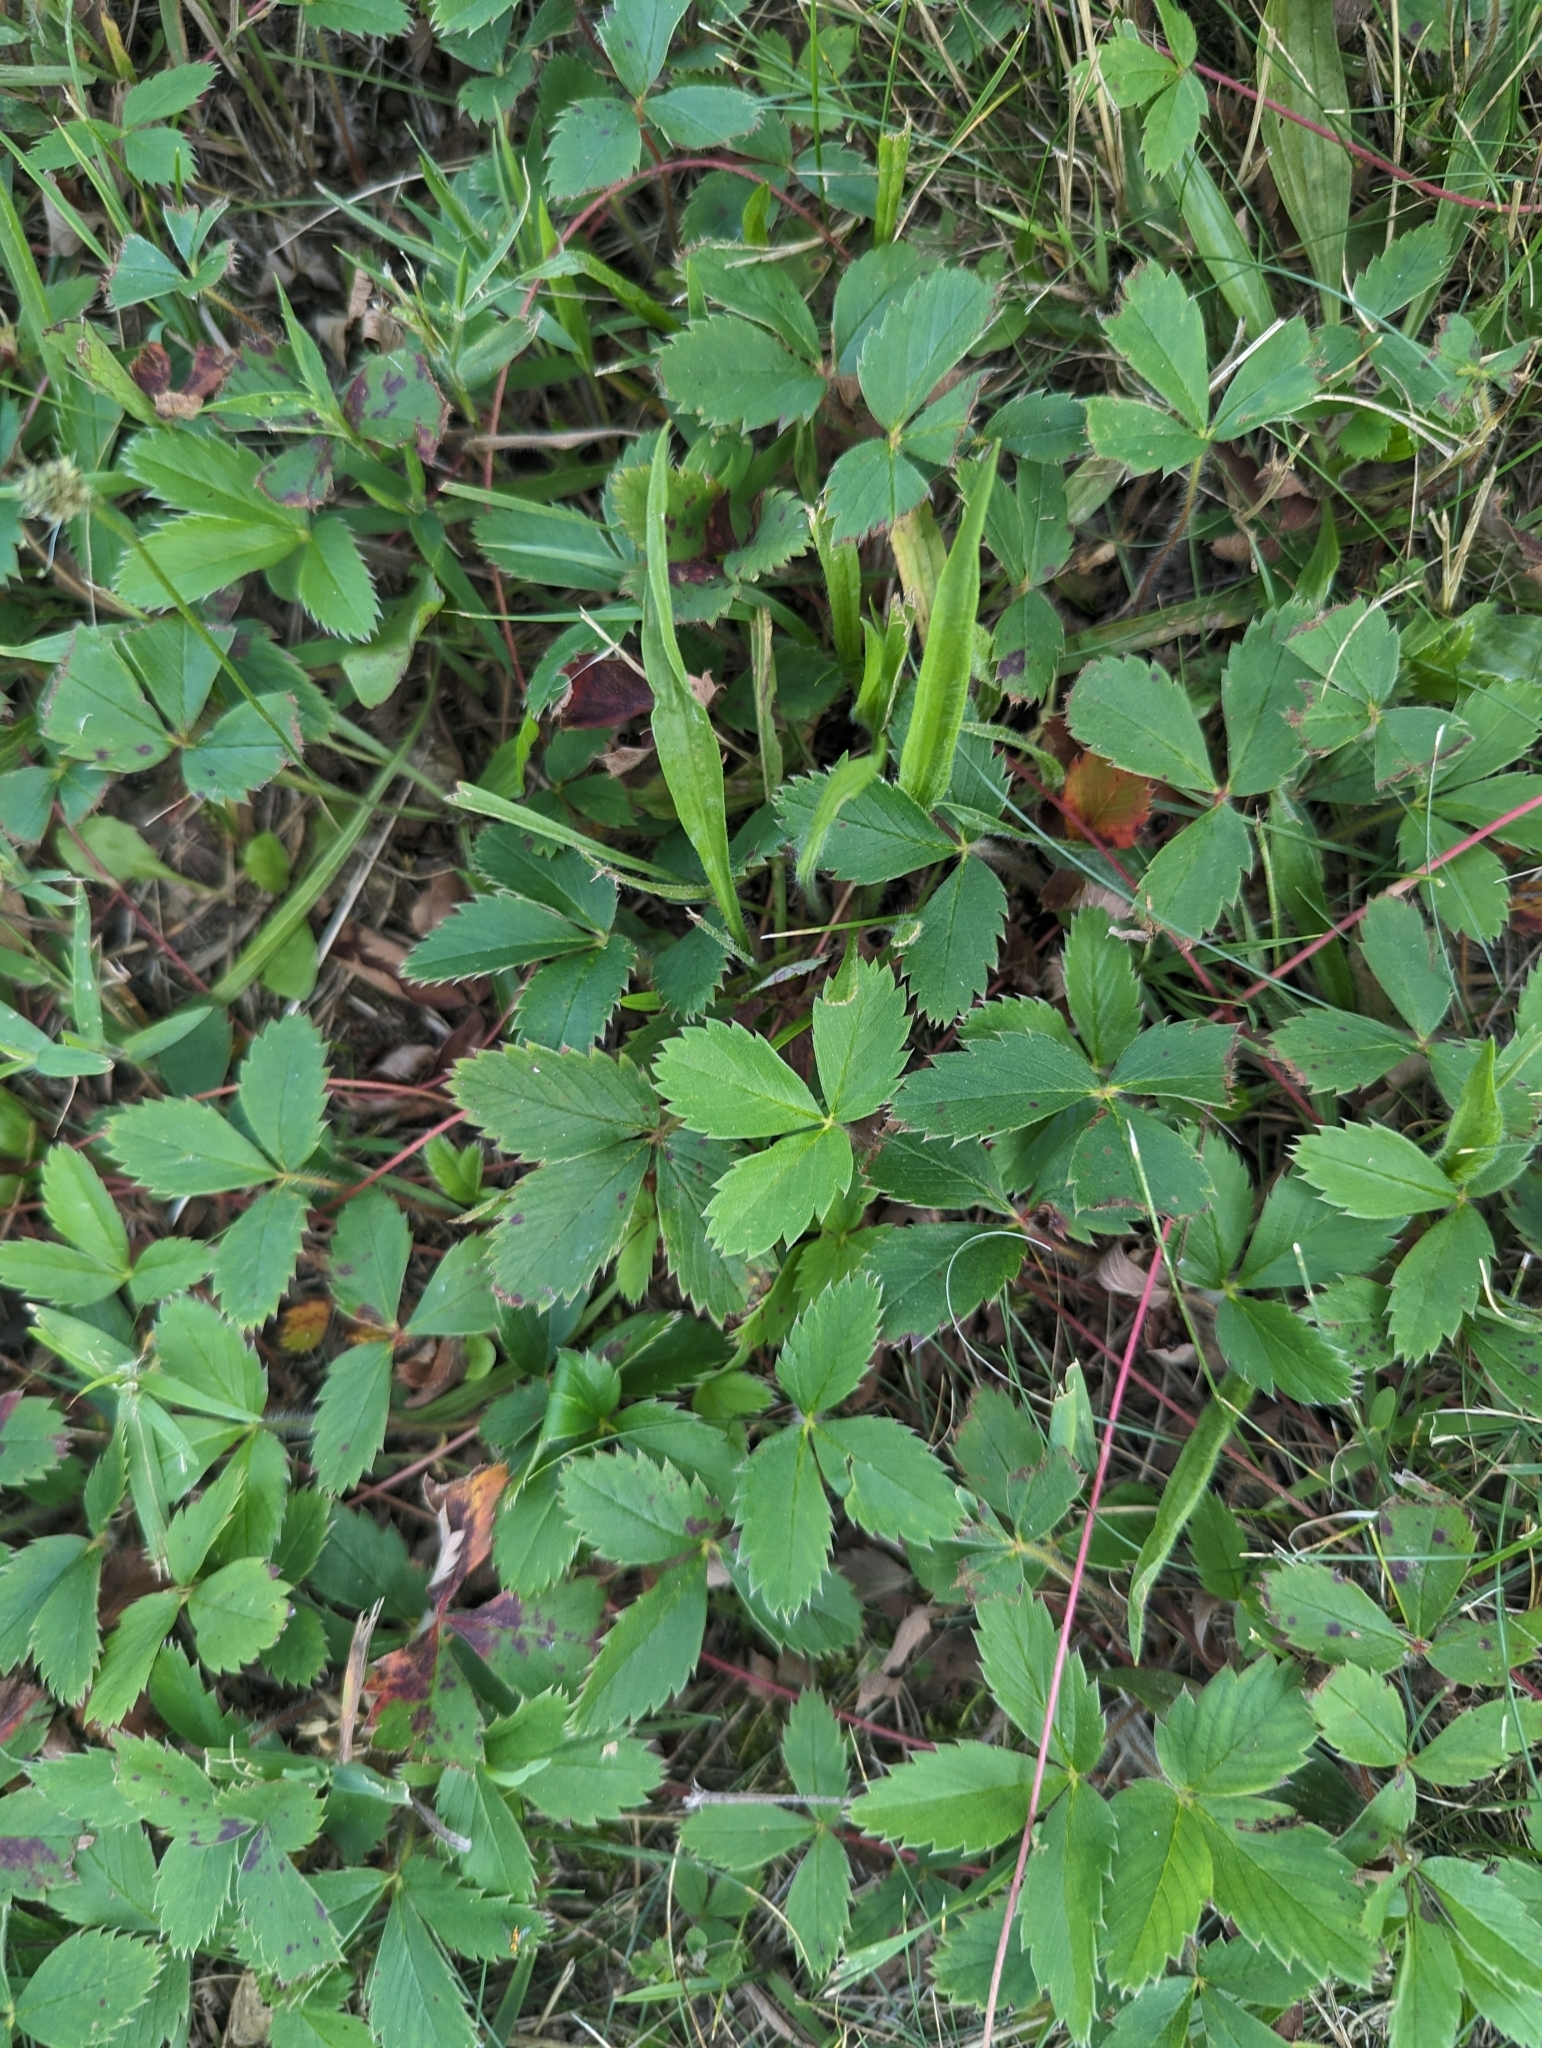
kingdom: Plantae
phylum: Tracheophyta
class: Magnoliopsida
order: Rosales
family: Rosaceae
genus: Fragaria
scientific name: Fragaria virginiana
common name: Thickleaved wild strawberry
